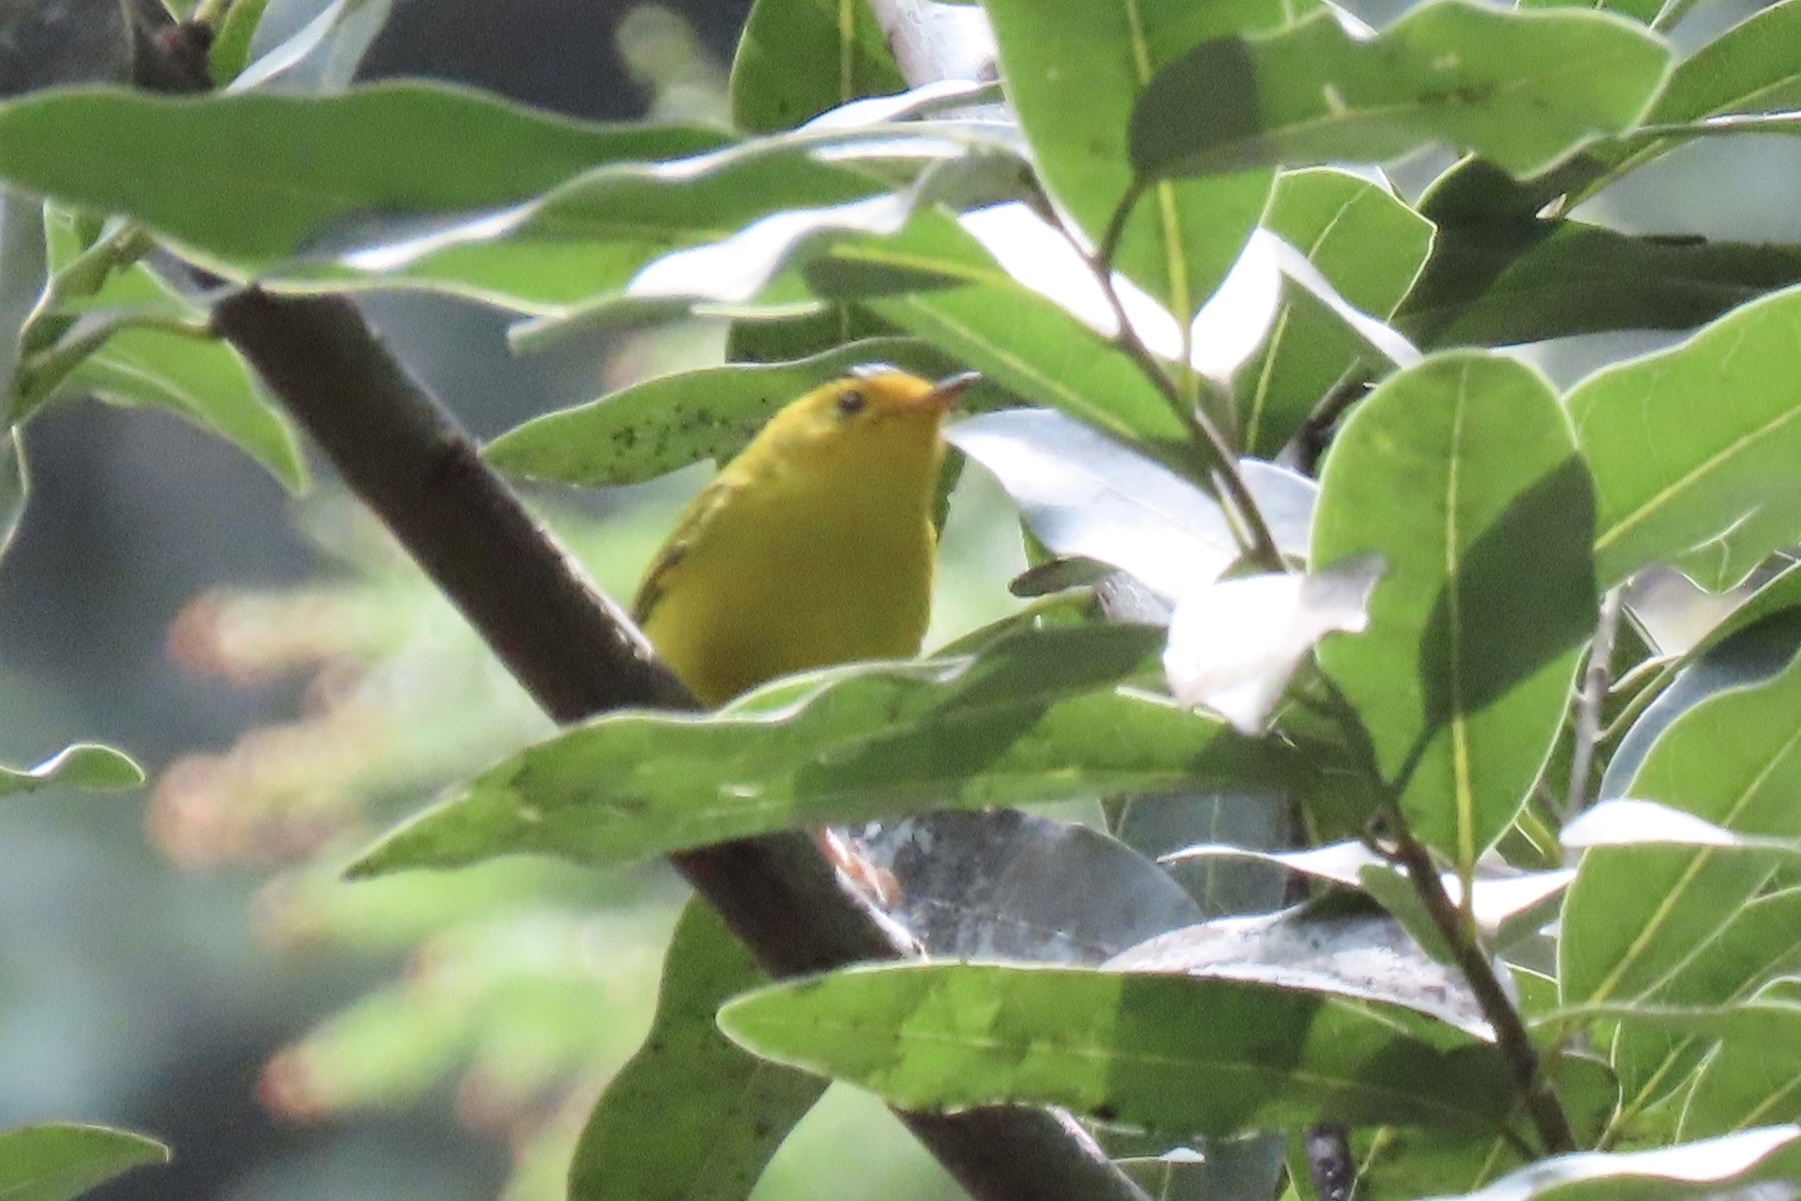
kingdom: Animalia
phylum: Chordata
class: Aves
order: Passeriformes
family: Parulidae
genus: Cardellina
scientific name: Cardellina pusilla
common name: Wilson's warbler
